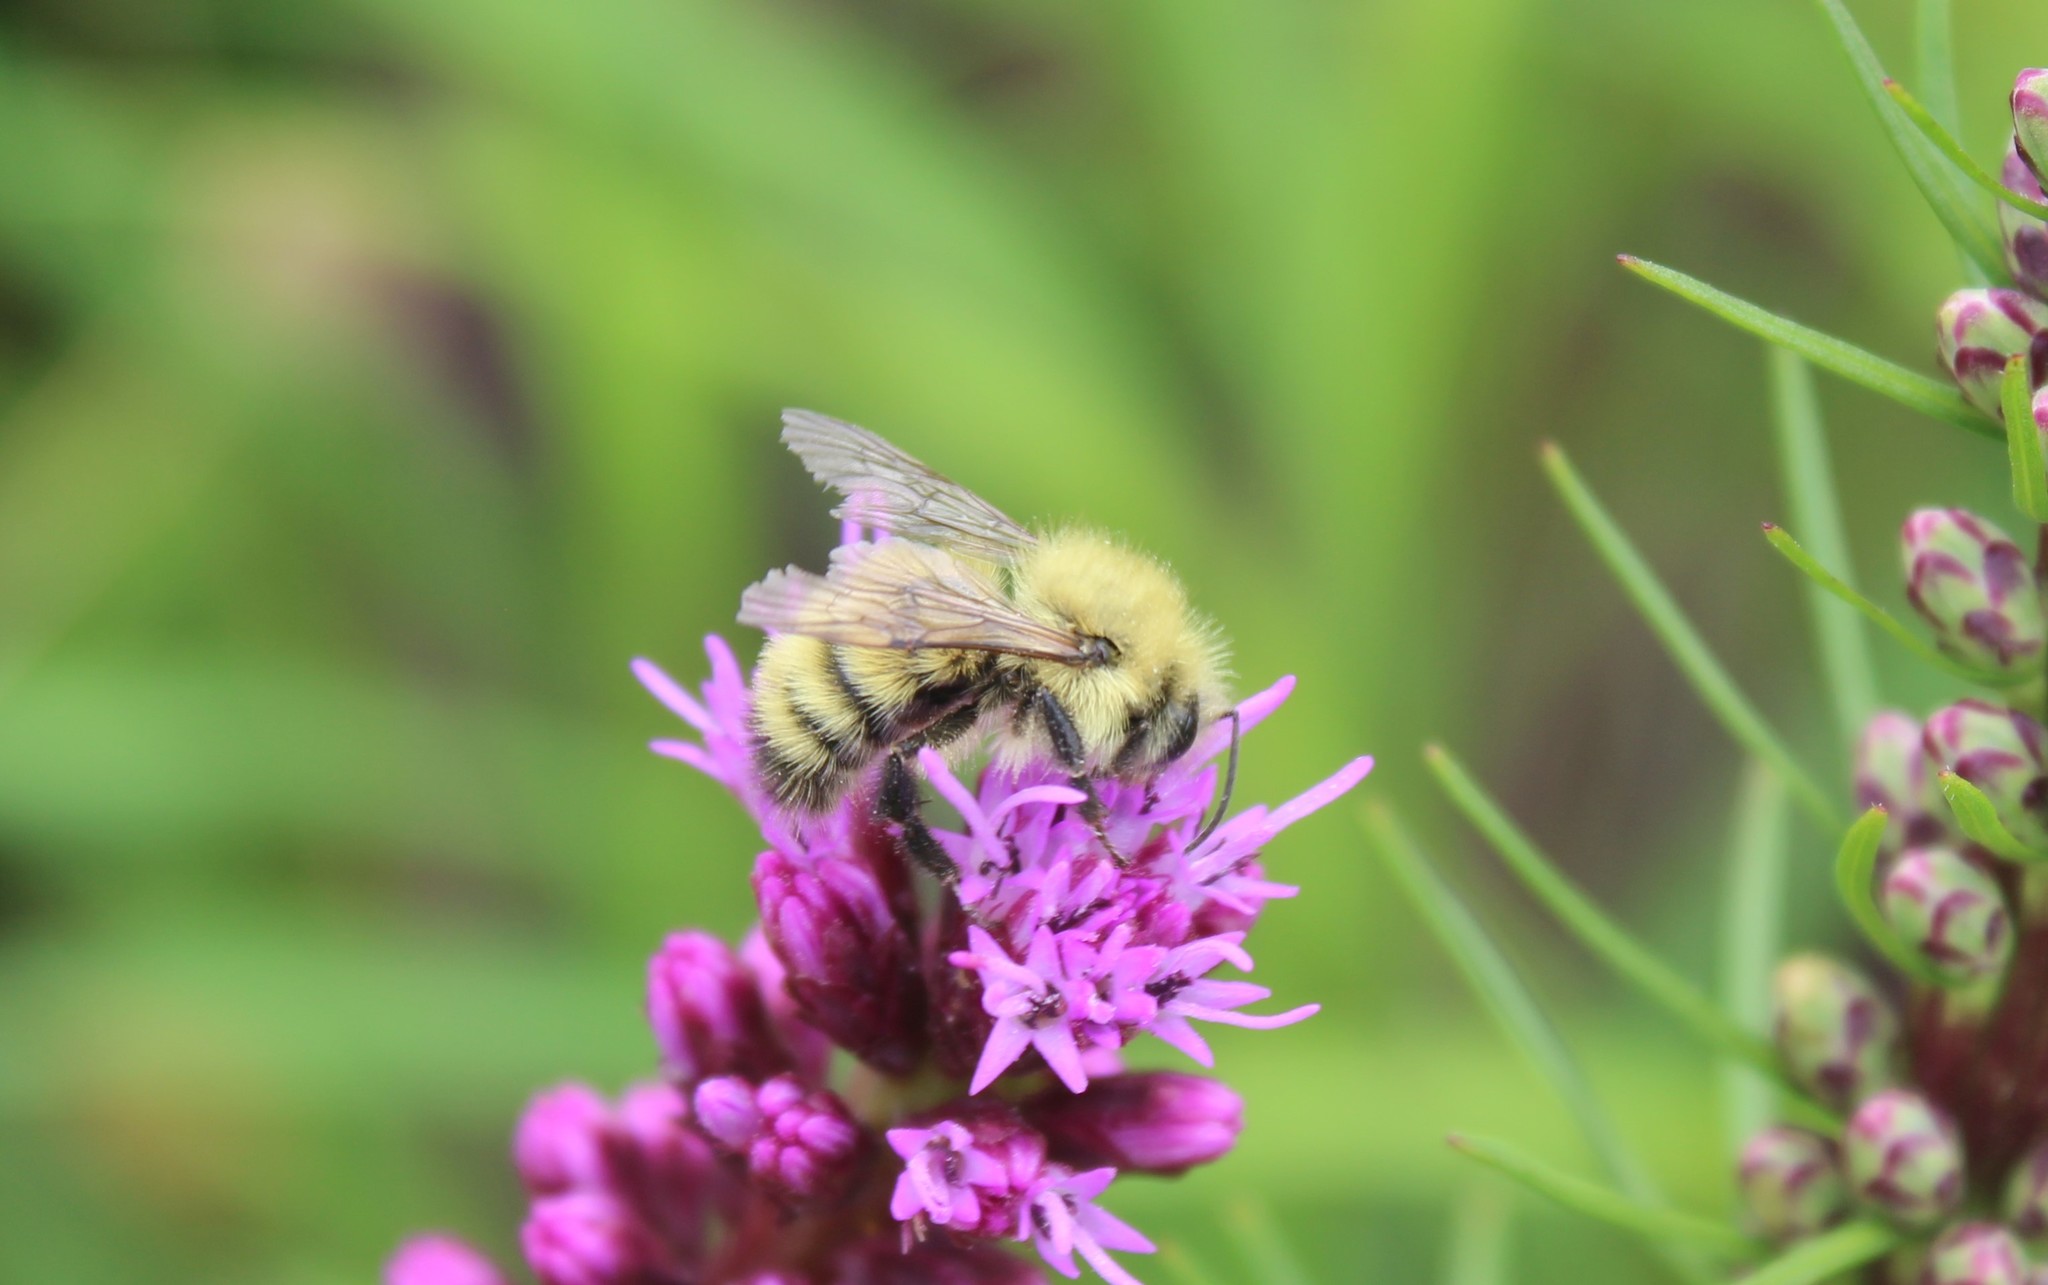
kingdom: Animalia
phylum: Arthropoda
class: Insecta
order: Hymenoptera
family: Apidae
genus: Bombus
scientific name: Bombus perplexus
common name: Confusing bumble bee
